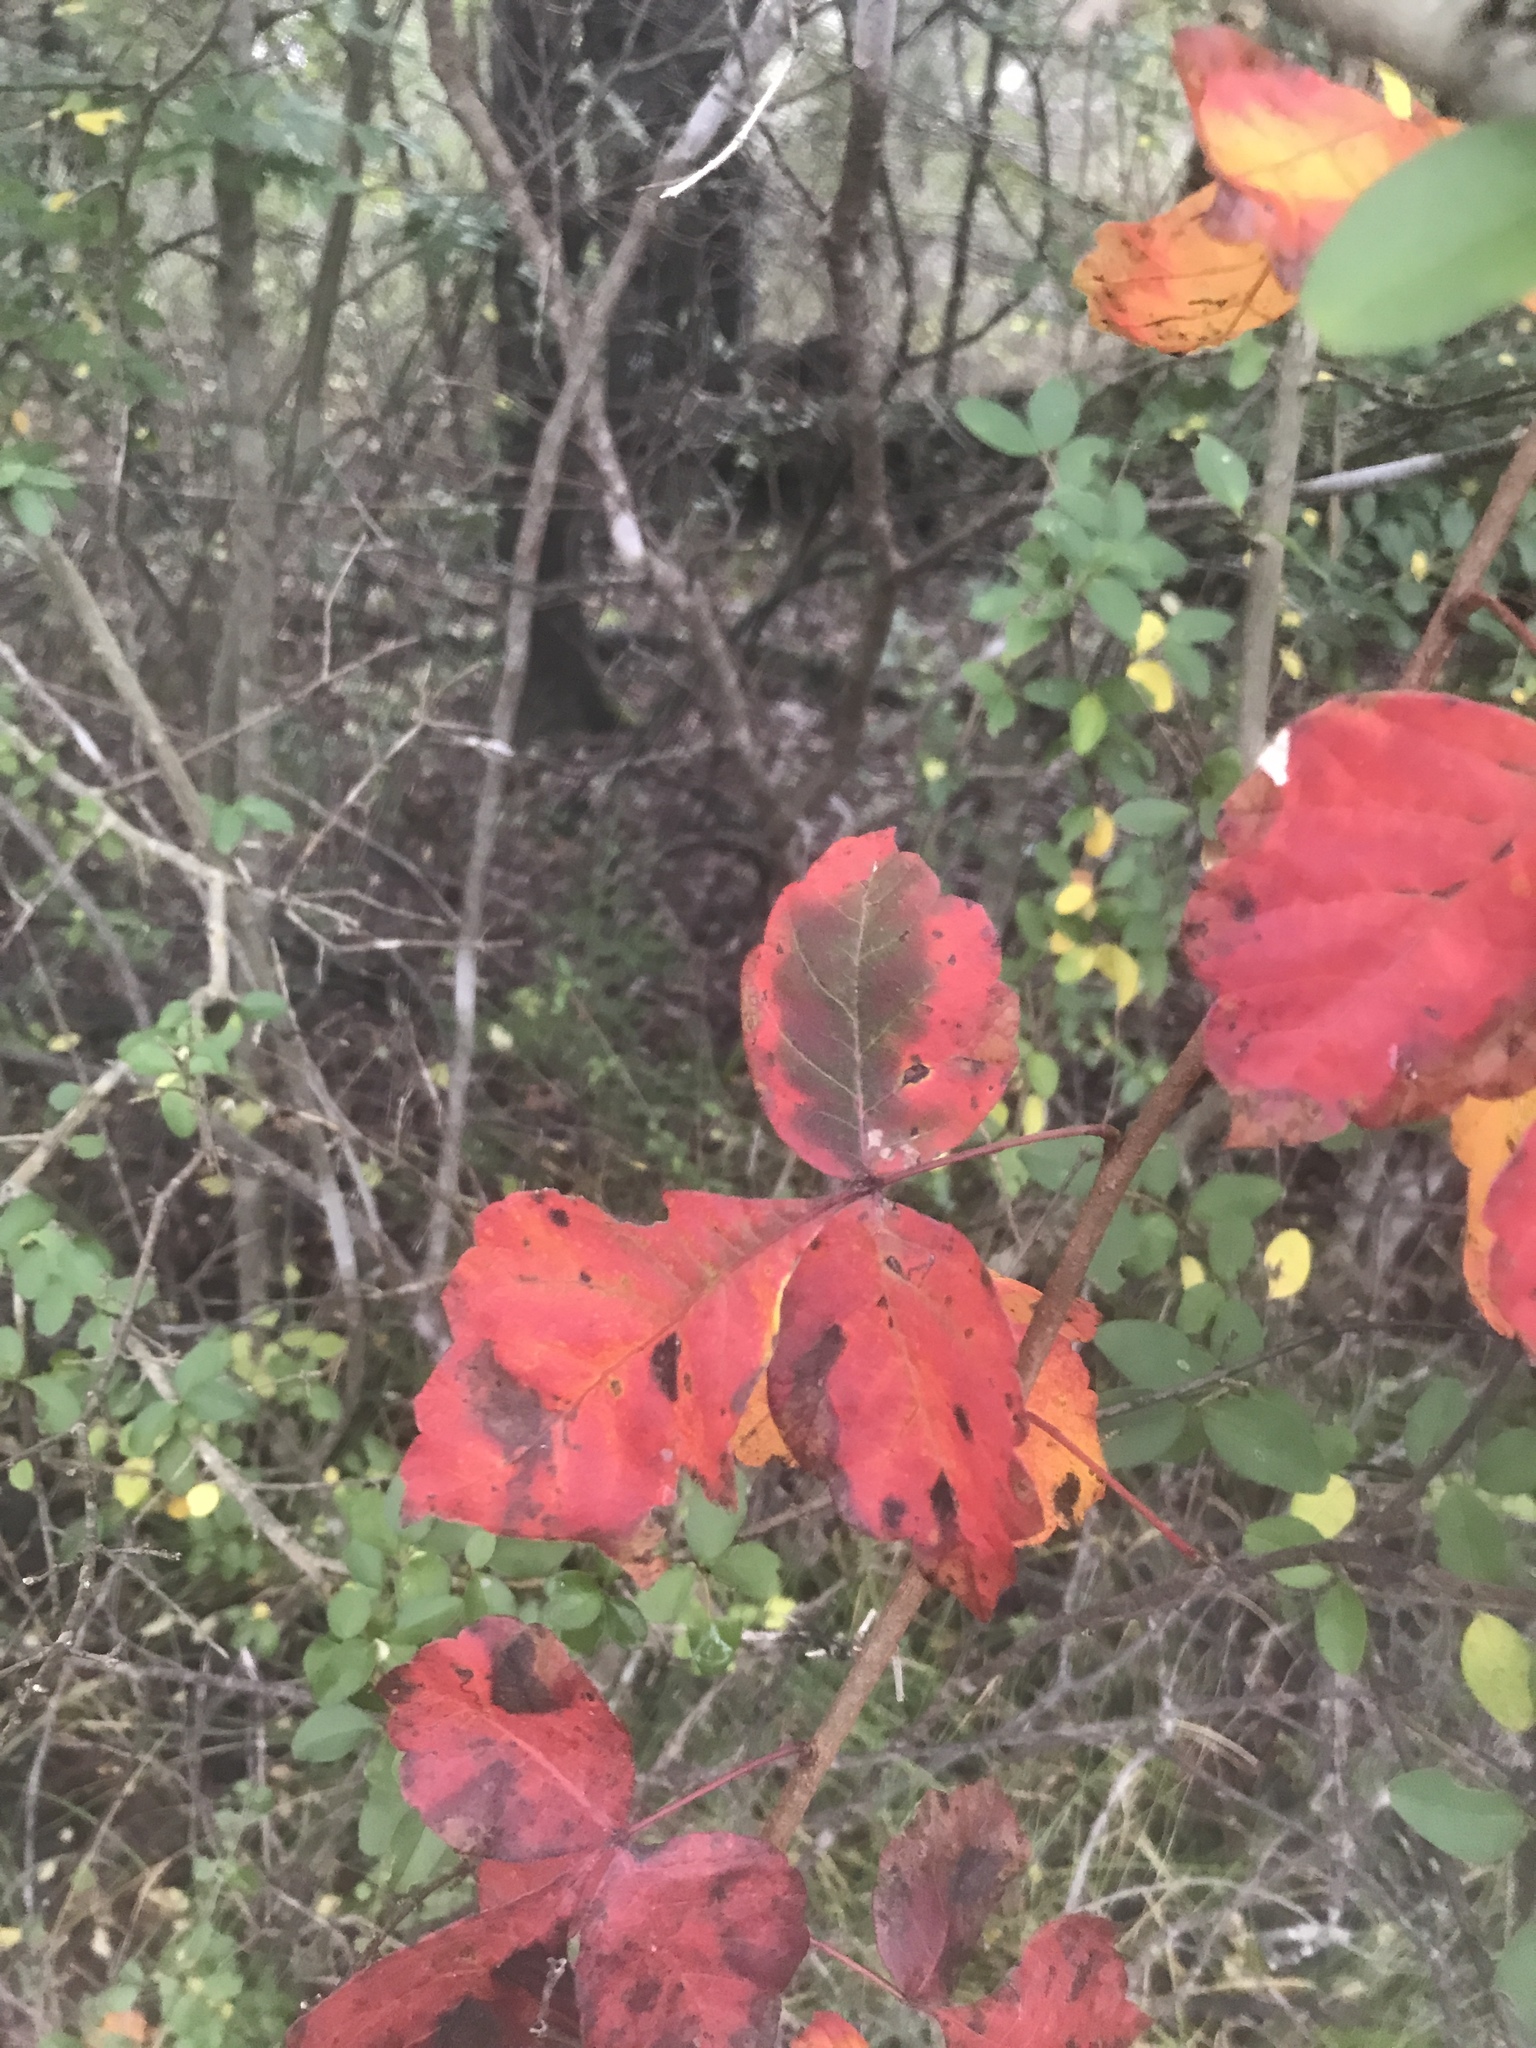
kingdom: Plantae
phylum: Tracheophyta
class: Magnoliopsida
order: Sapindales
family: Anacardiaceae
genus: Rhus
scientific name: Rhus aromatica
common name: Aromatic sumac
